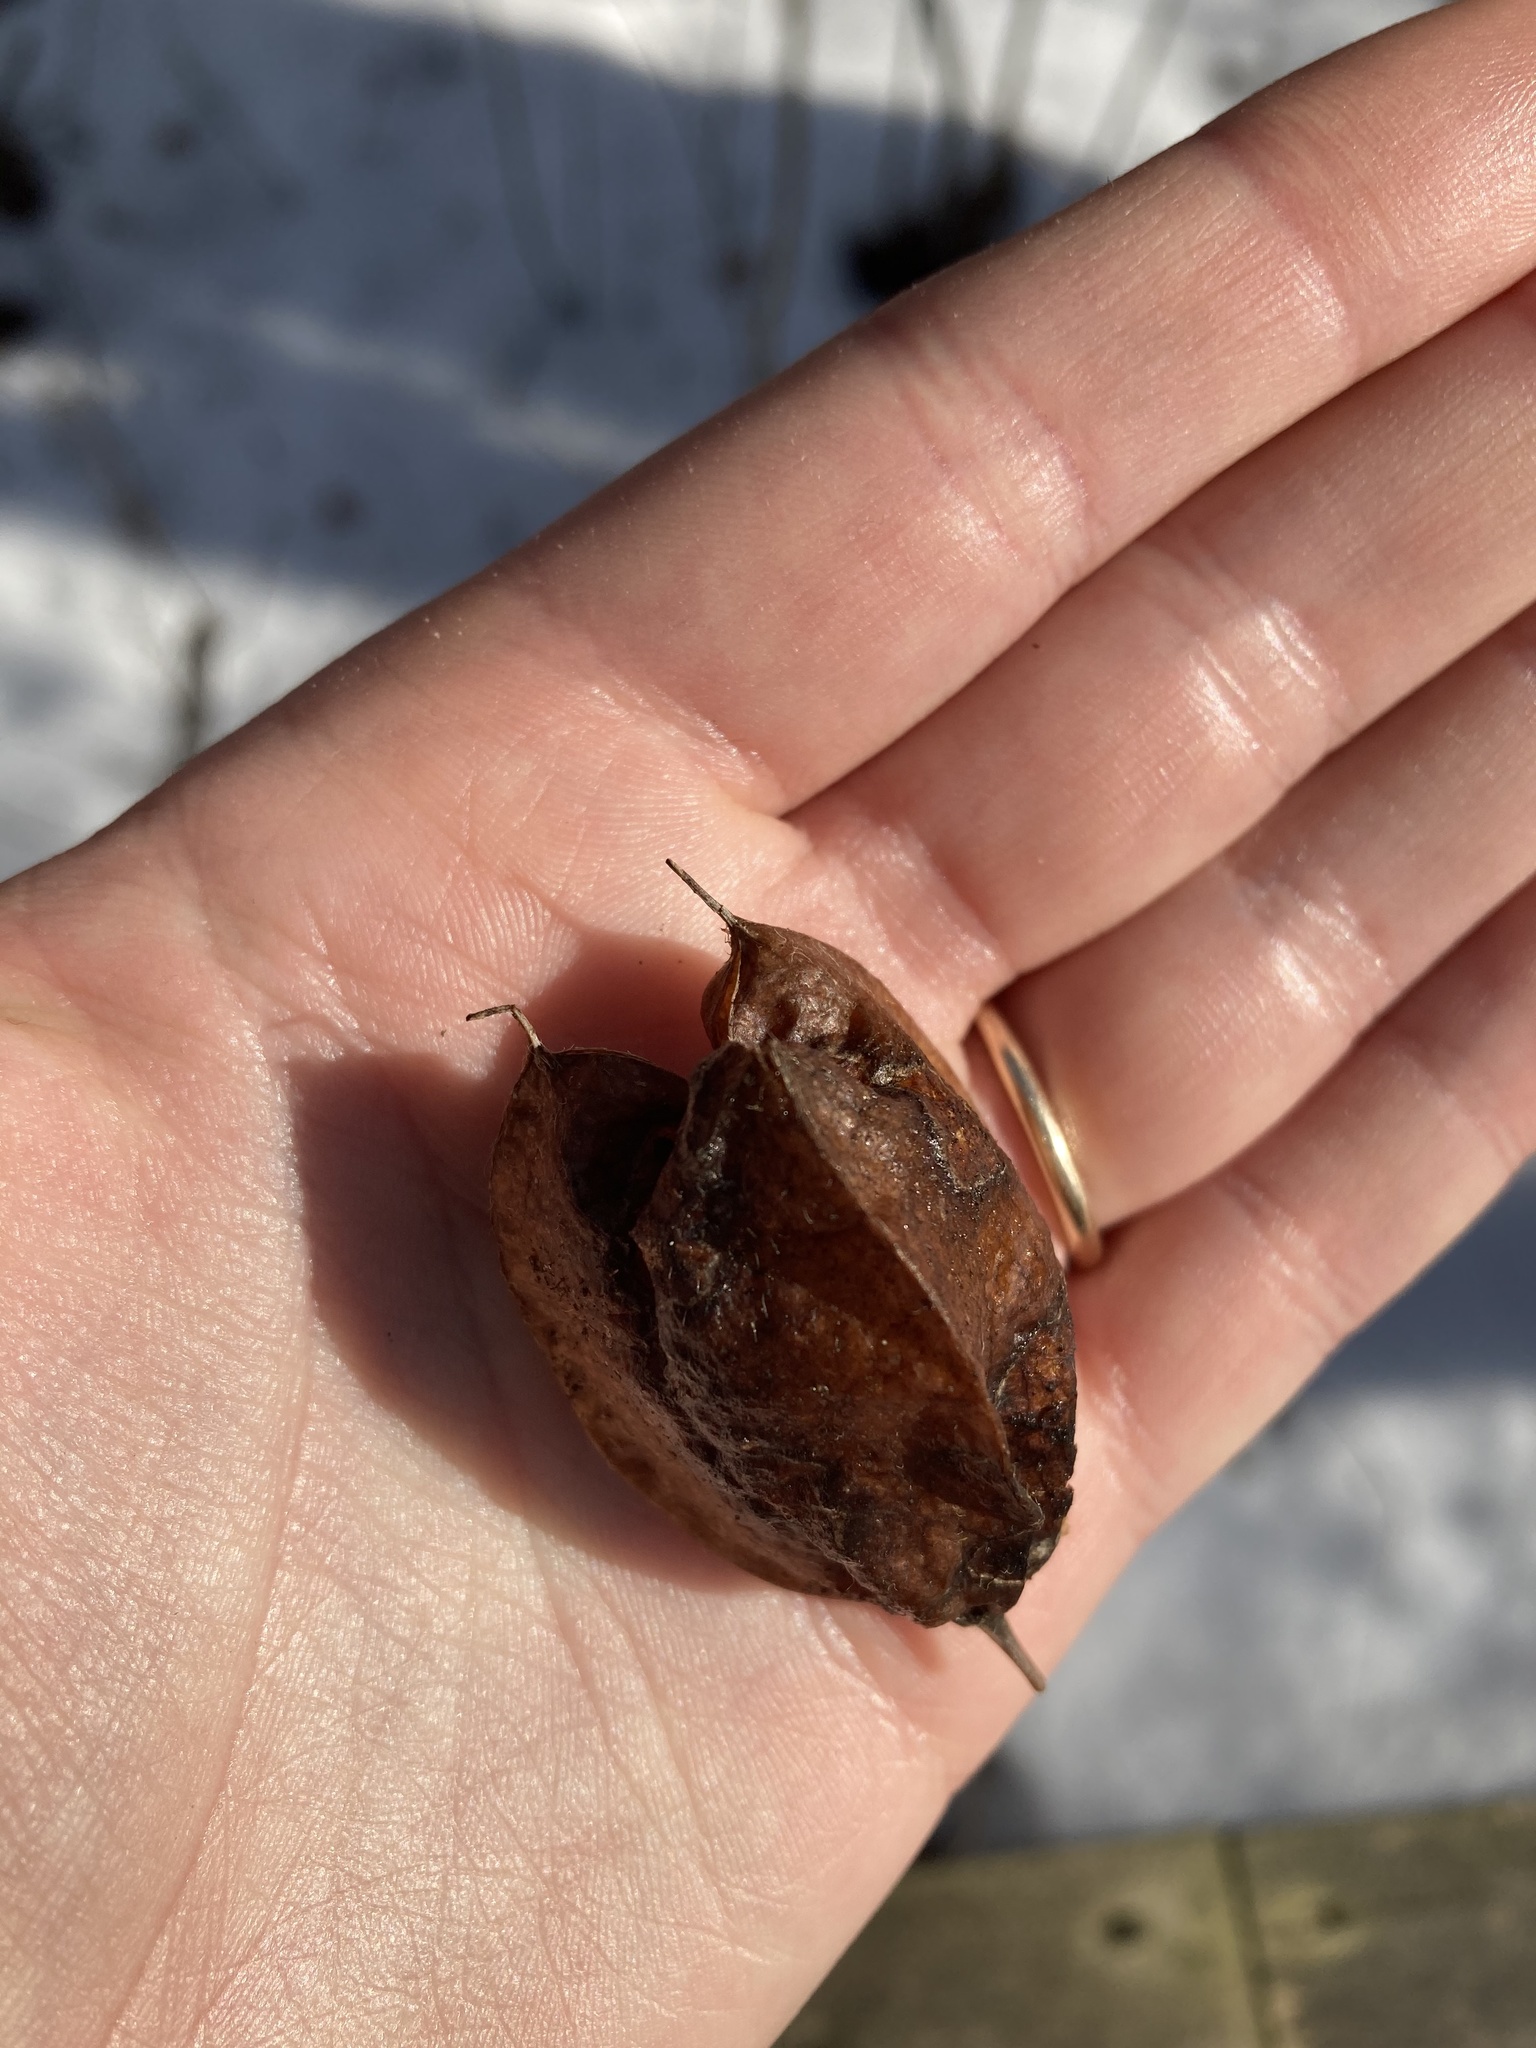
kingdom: Plantae
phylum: Tracheophyta
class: Magnoliopsida
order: Crossosomatales
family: Staphyleaceae
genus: Staphylea
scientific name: Staphylea trifolia
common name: American bladdernut
